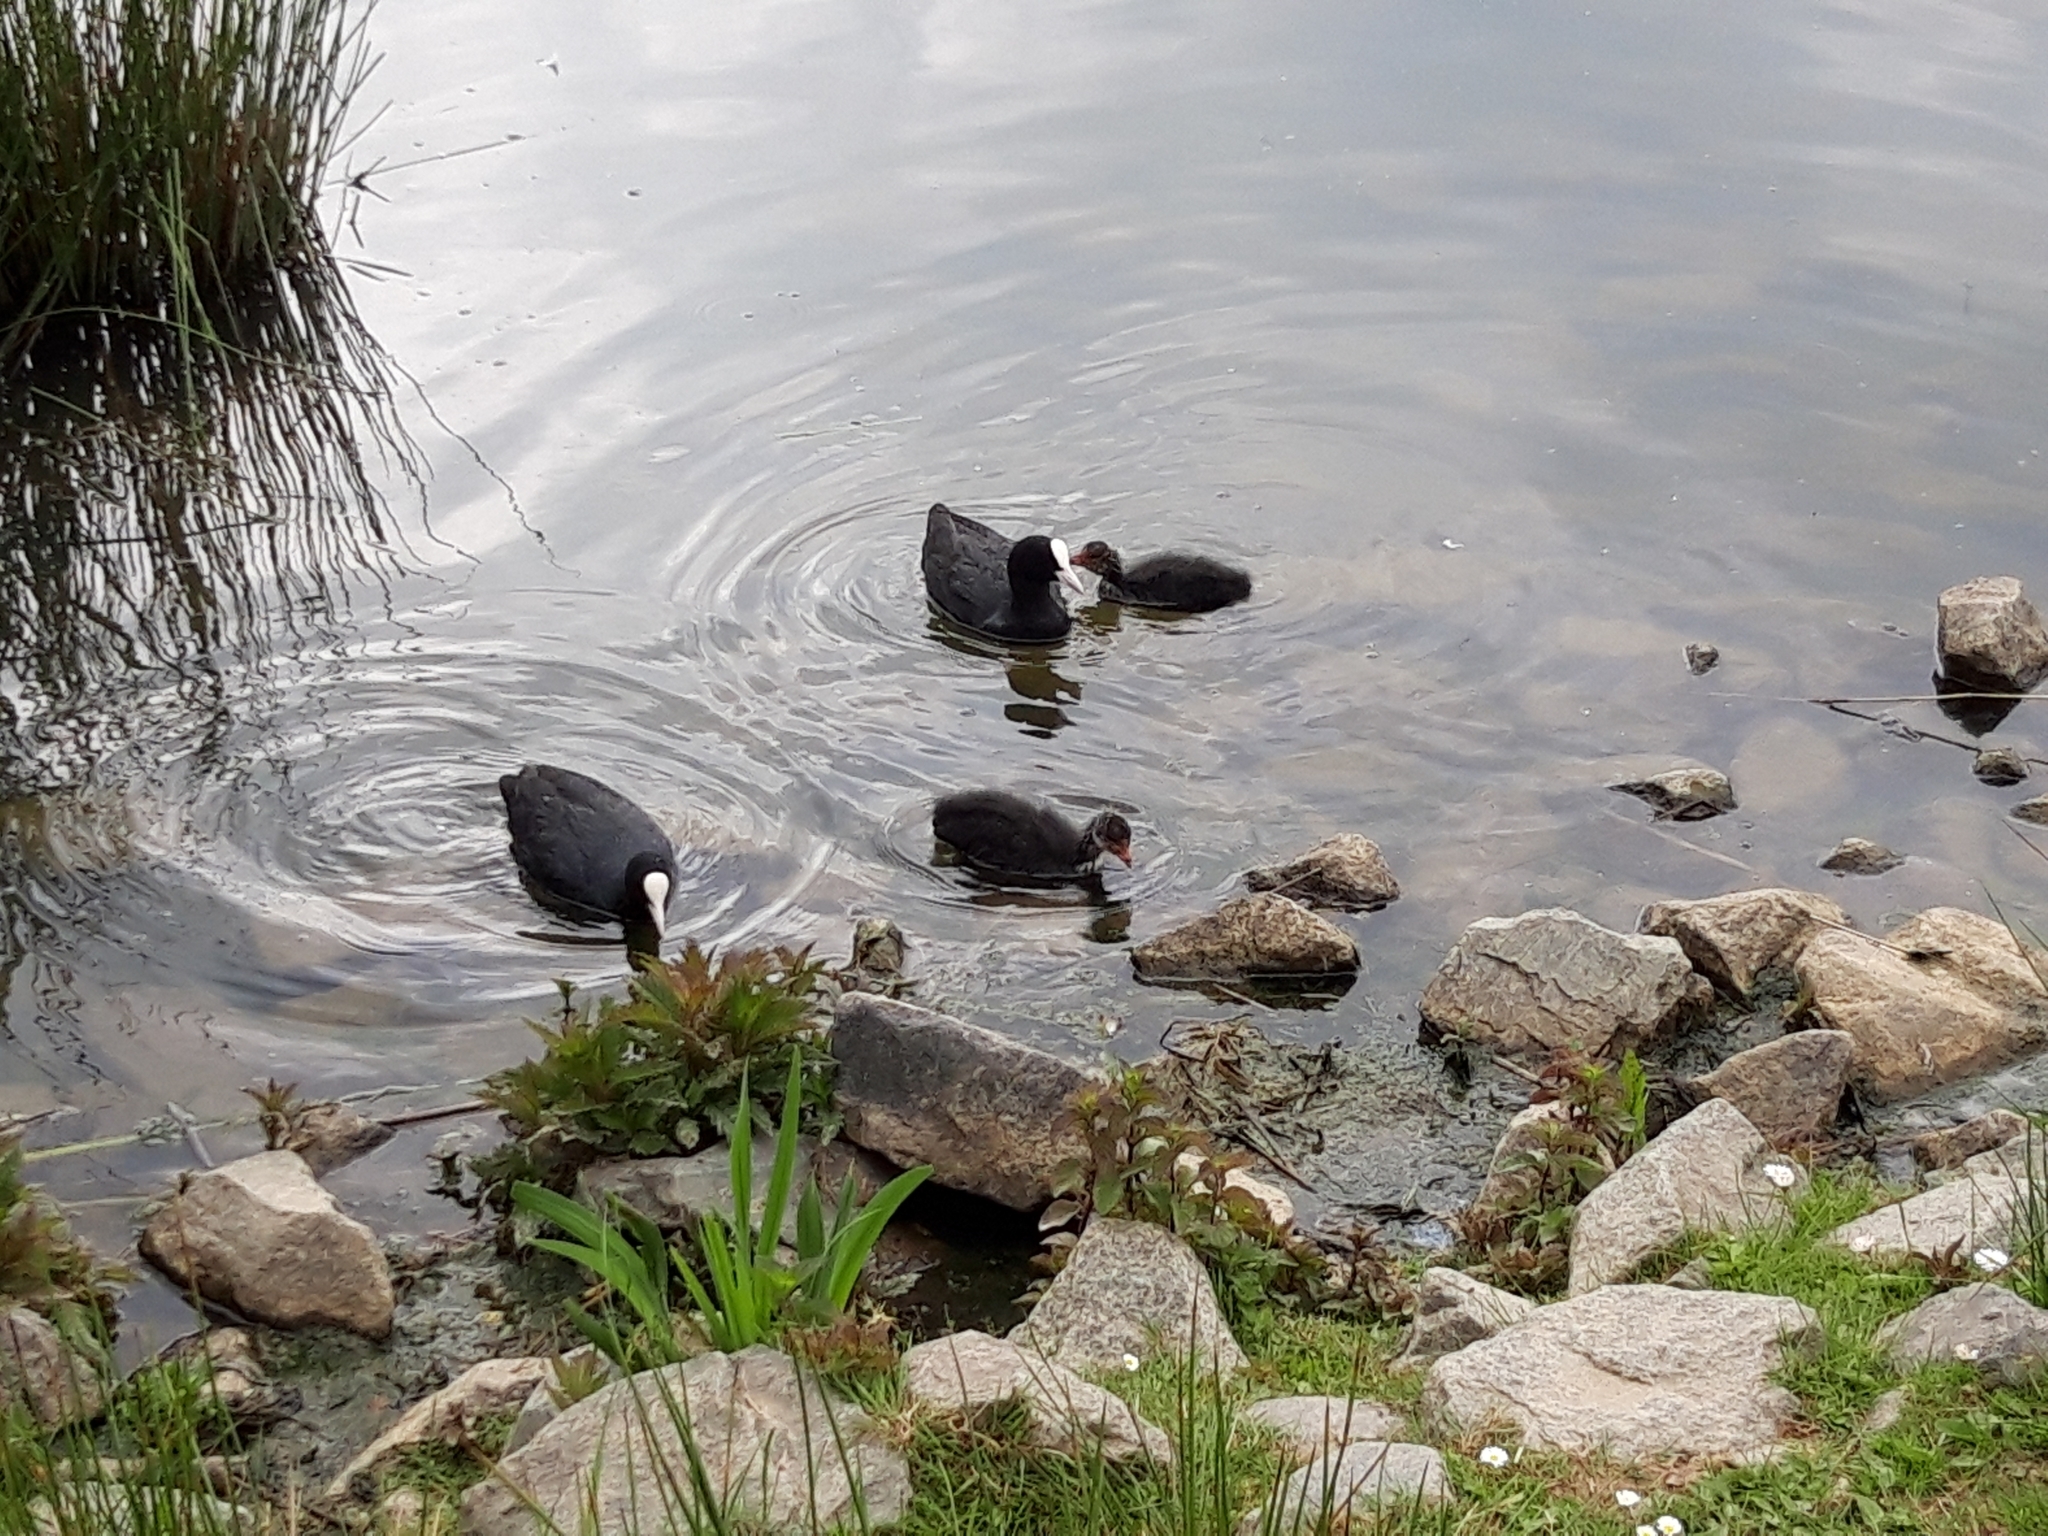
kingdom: Animalia
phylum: Chordata
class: Aves
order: Gruiformes
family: Rallidae
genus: Fulica
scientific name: Fulica atra
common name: Eurasian coot
